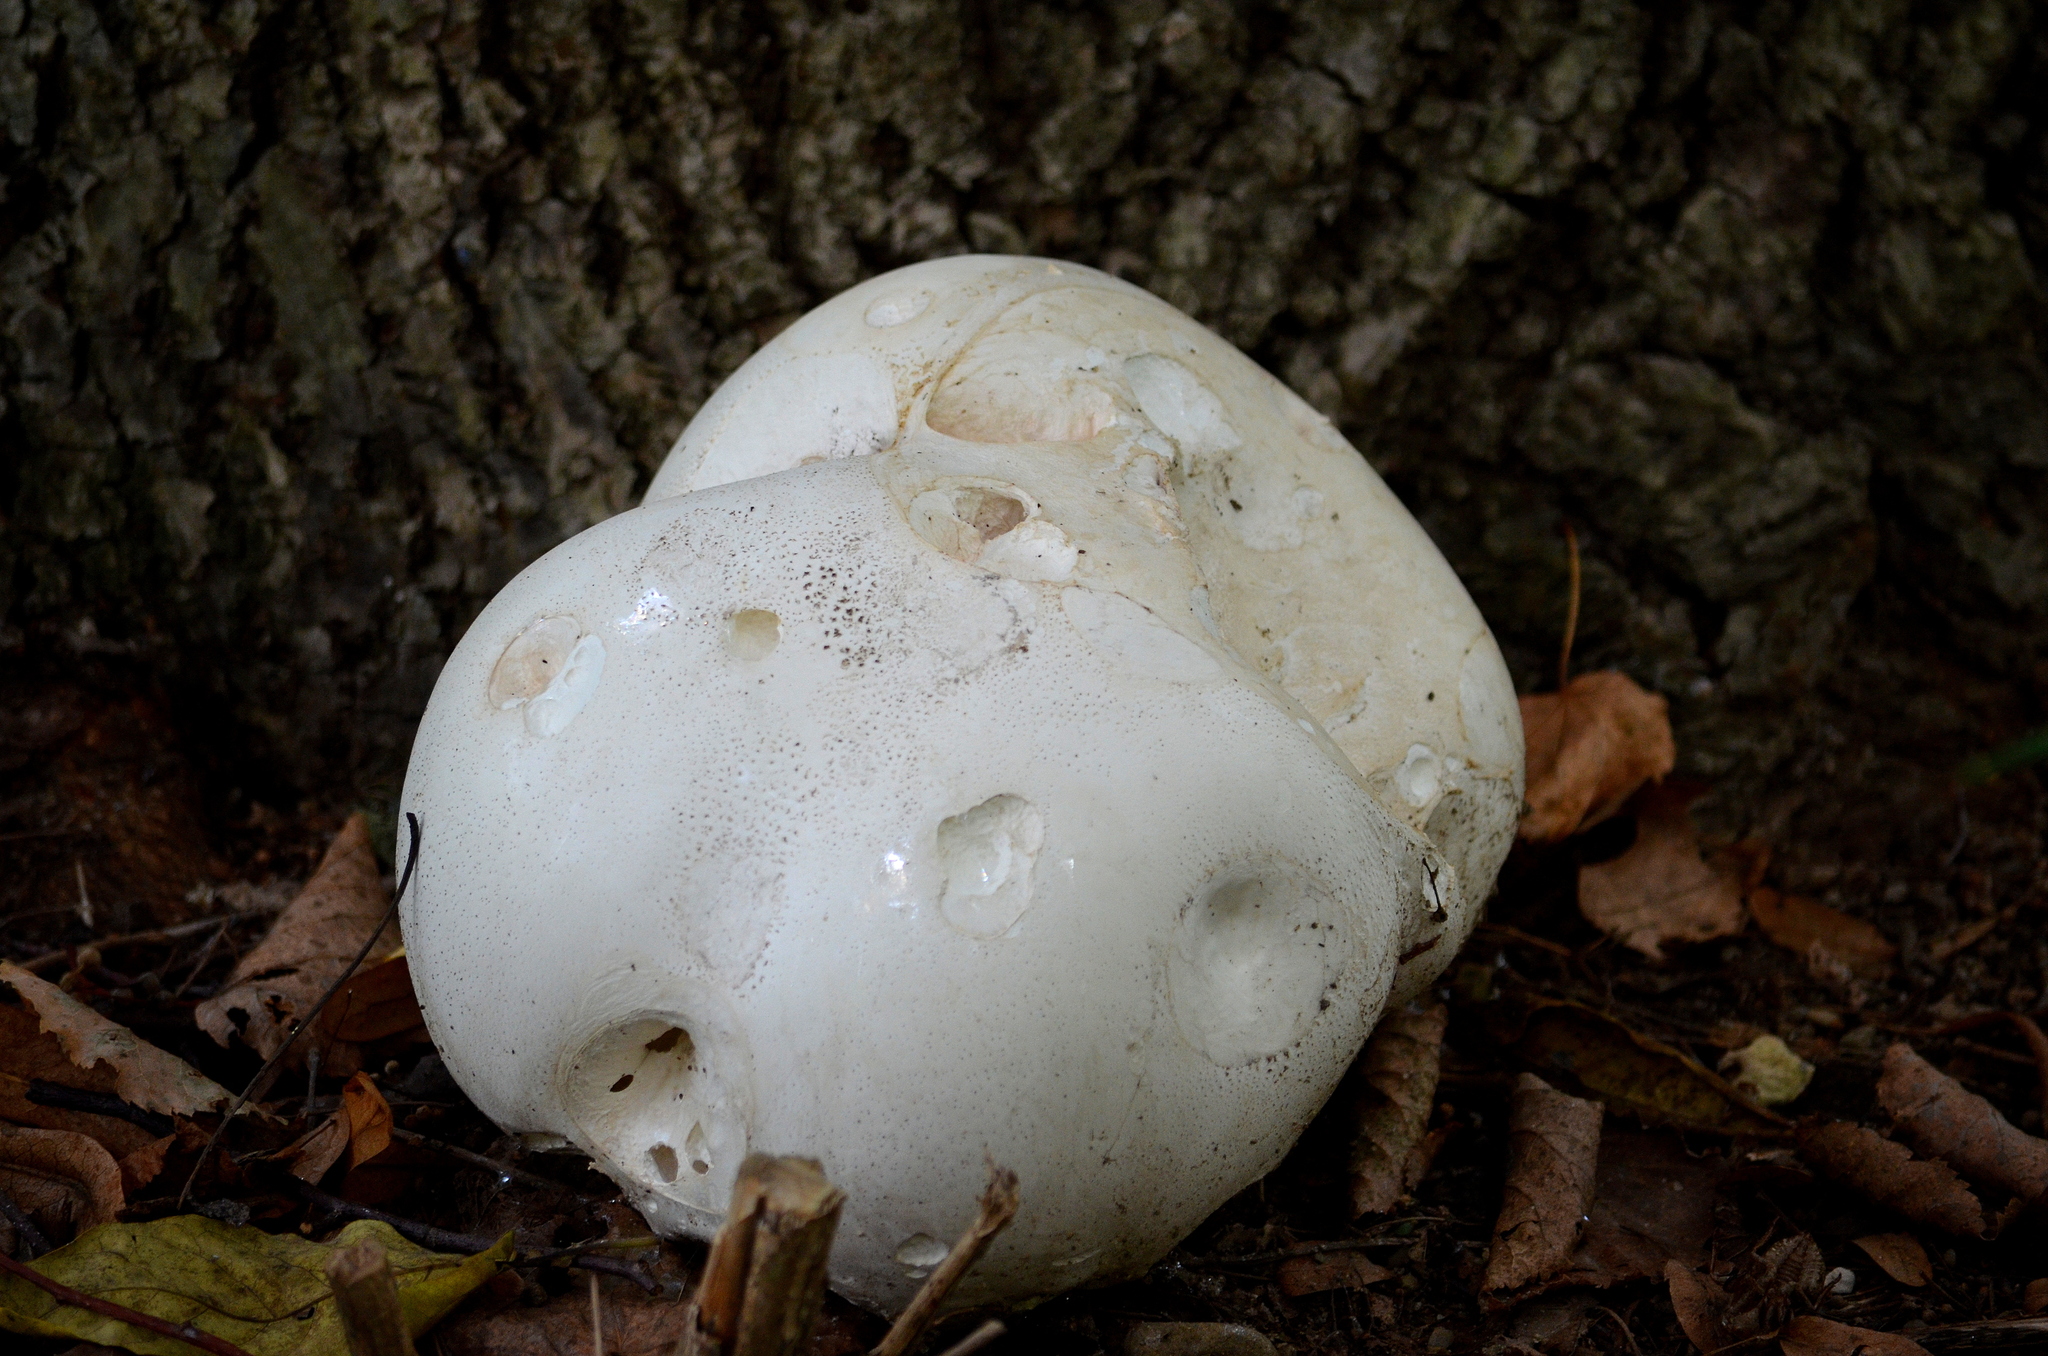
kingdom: Fungi
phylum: Basidiomycota
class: Agaricomycetes
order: Agaricales
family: Lycoperdaceae
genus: Calvatia
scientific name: Calvatia gigantea
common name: Giant puffball
